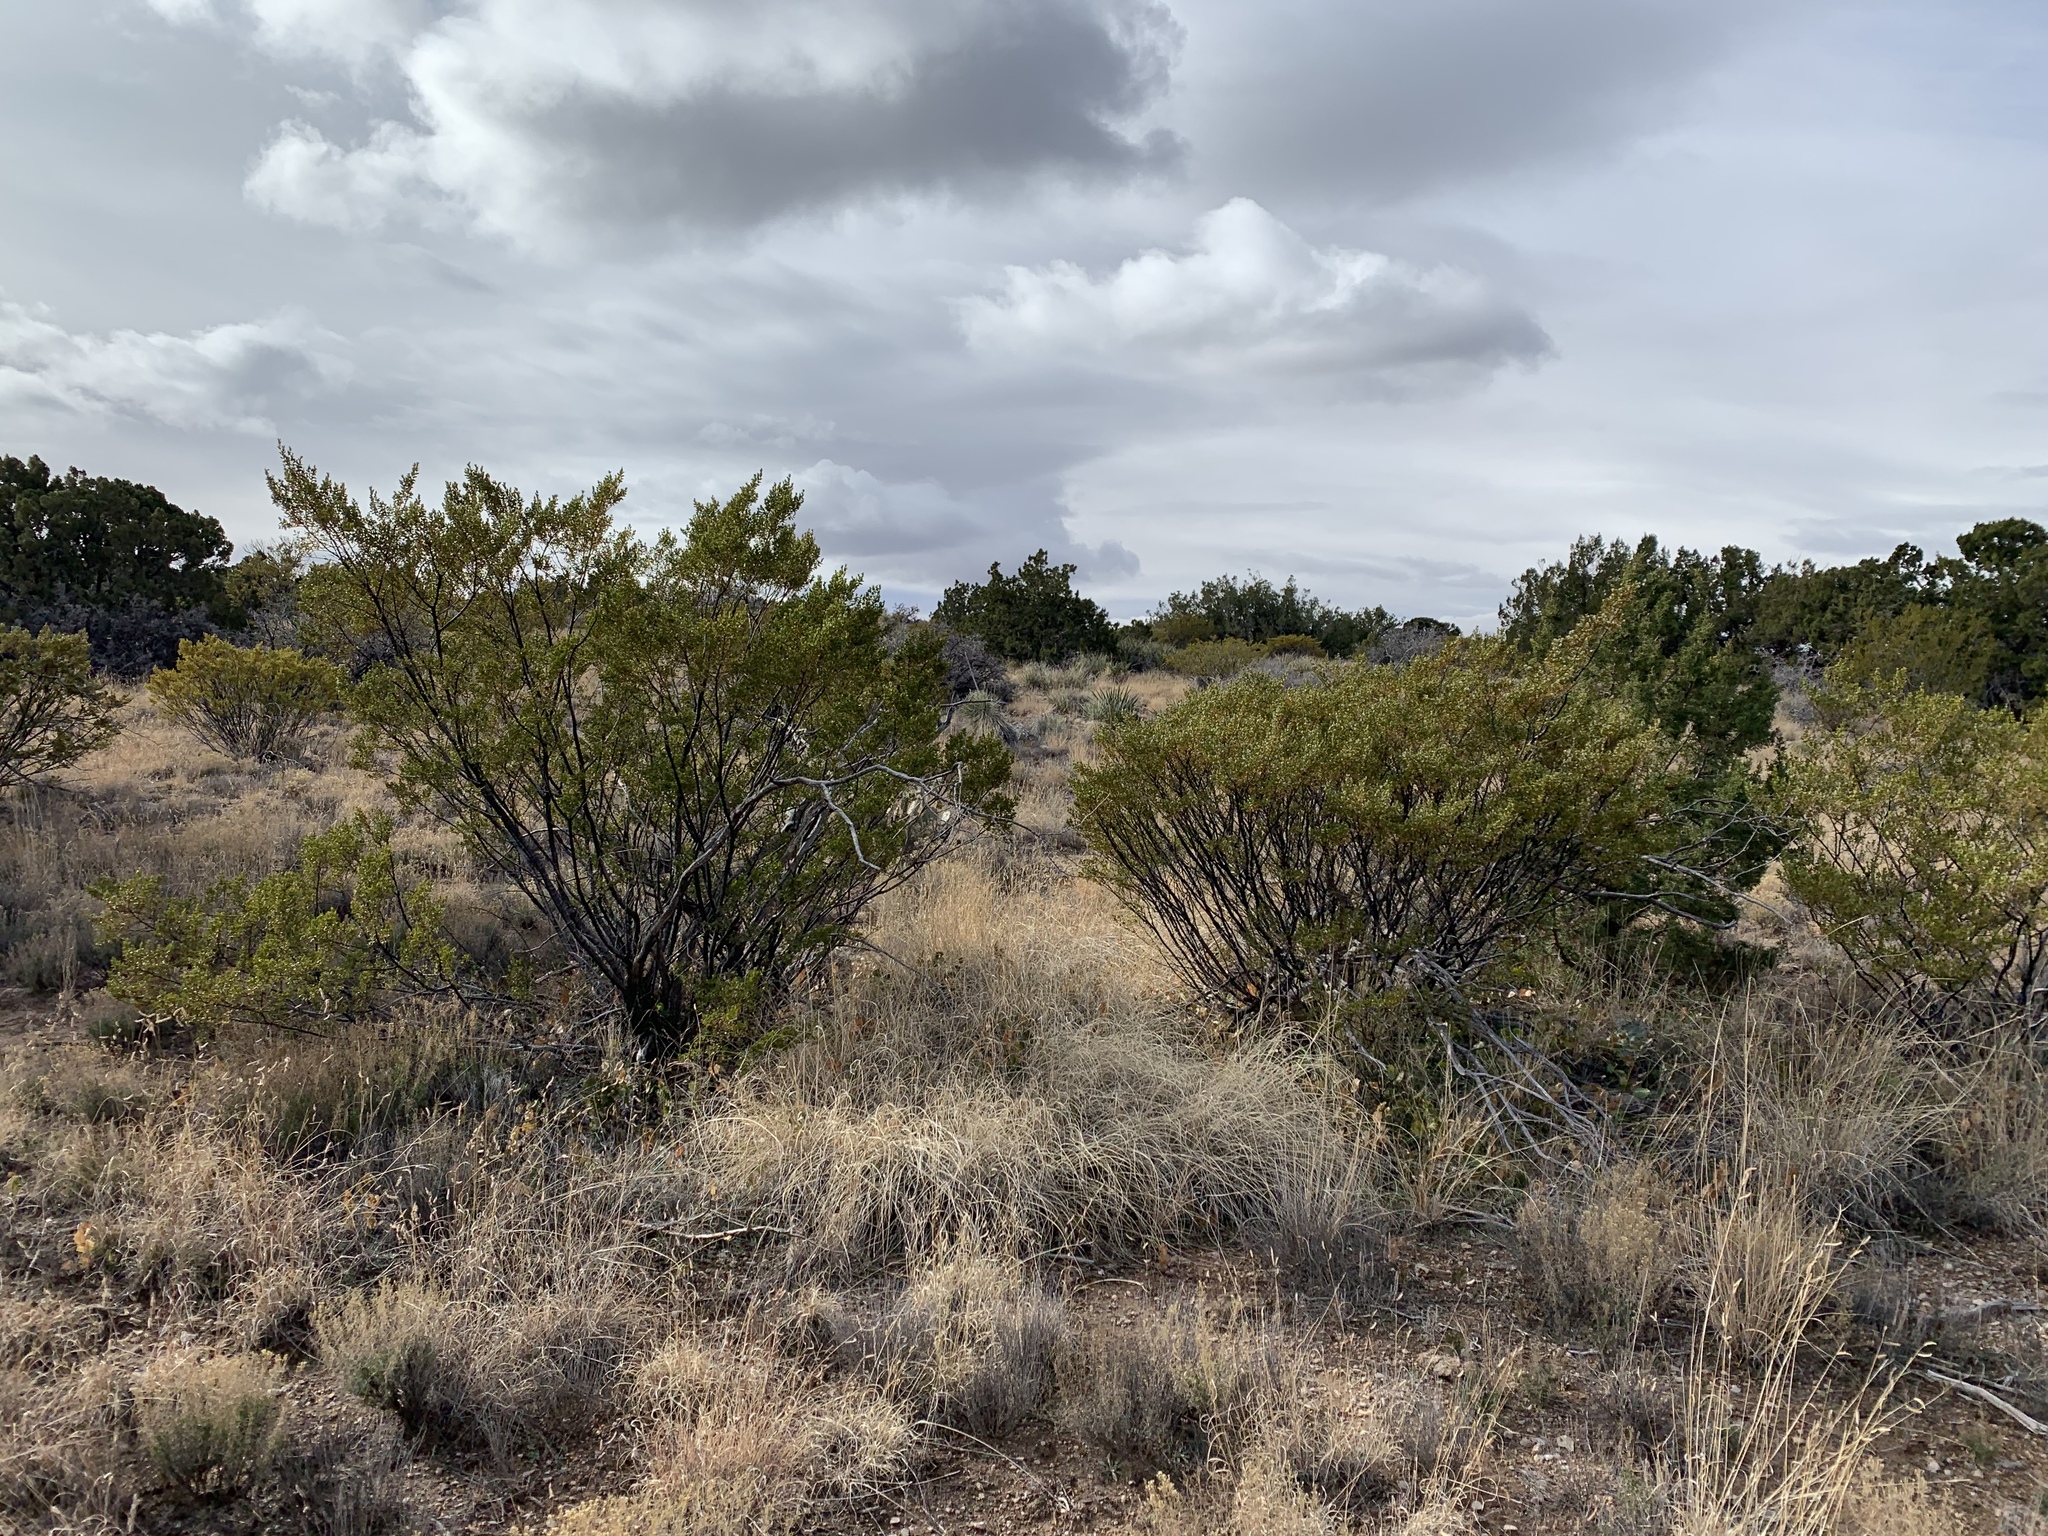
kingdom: Plantae
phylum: Tracheophyta
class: Magnoliopsida
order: Zygophyllales
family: Zygophyllaceae
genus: Larrea
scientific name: Larrea tridentata
